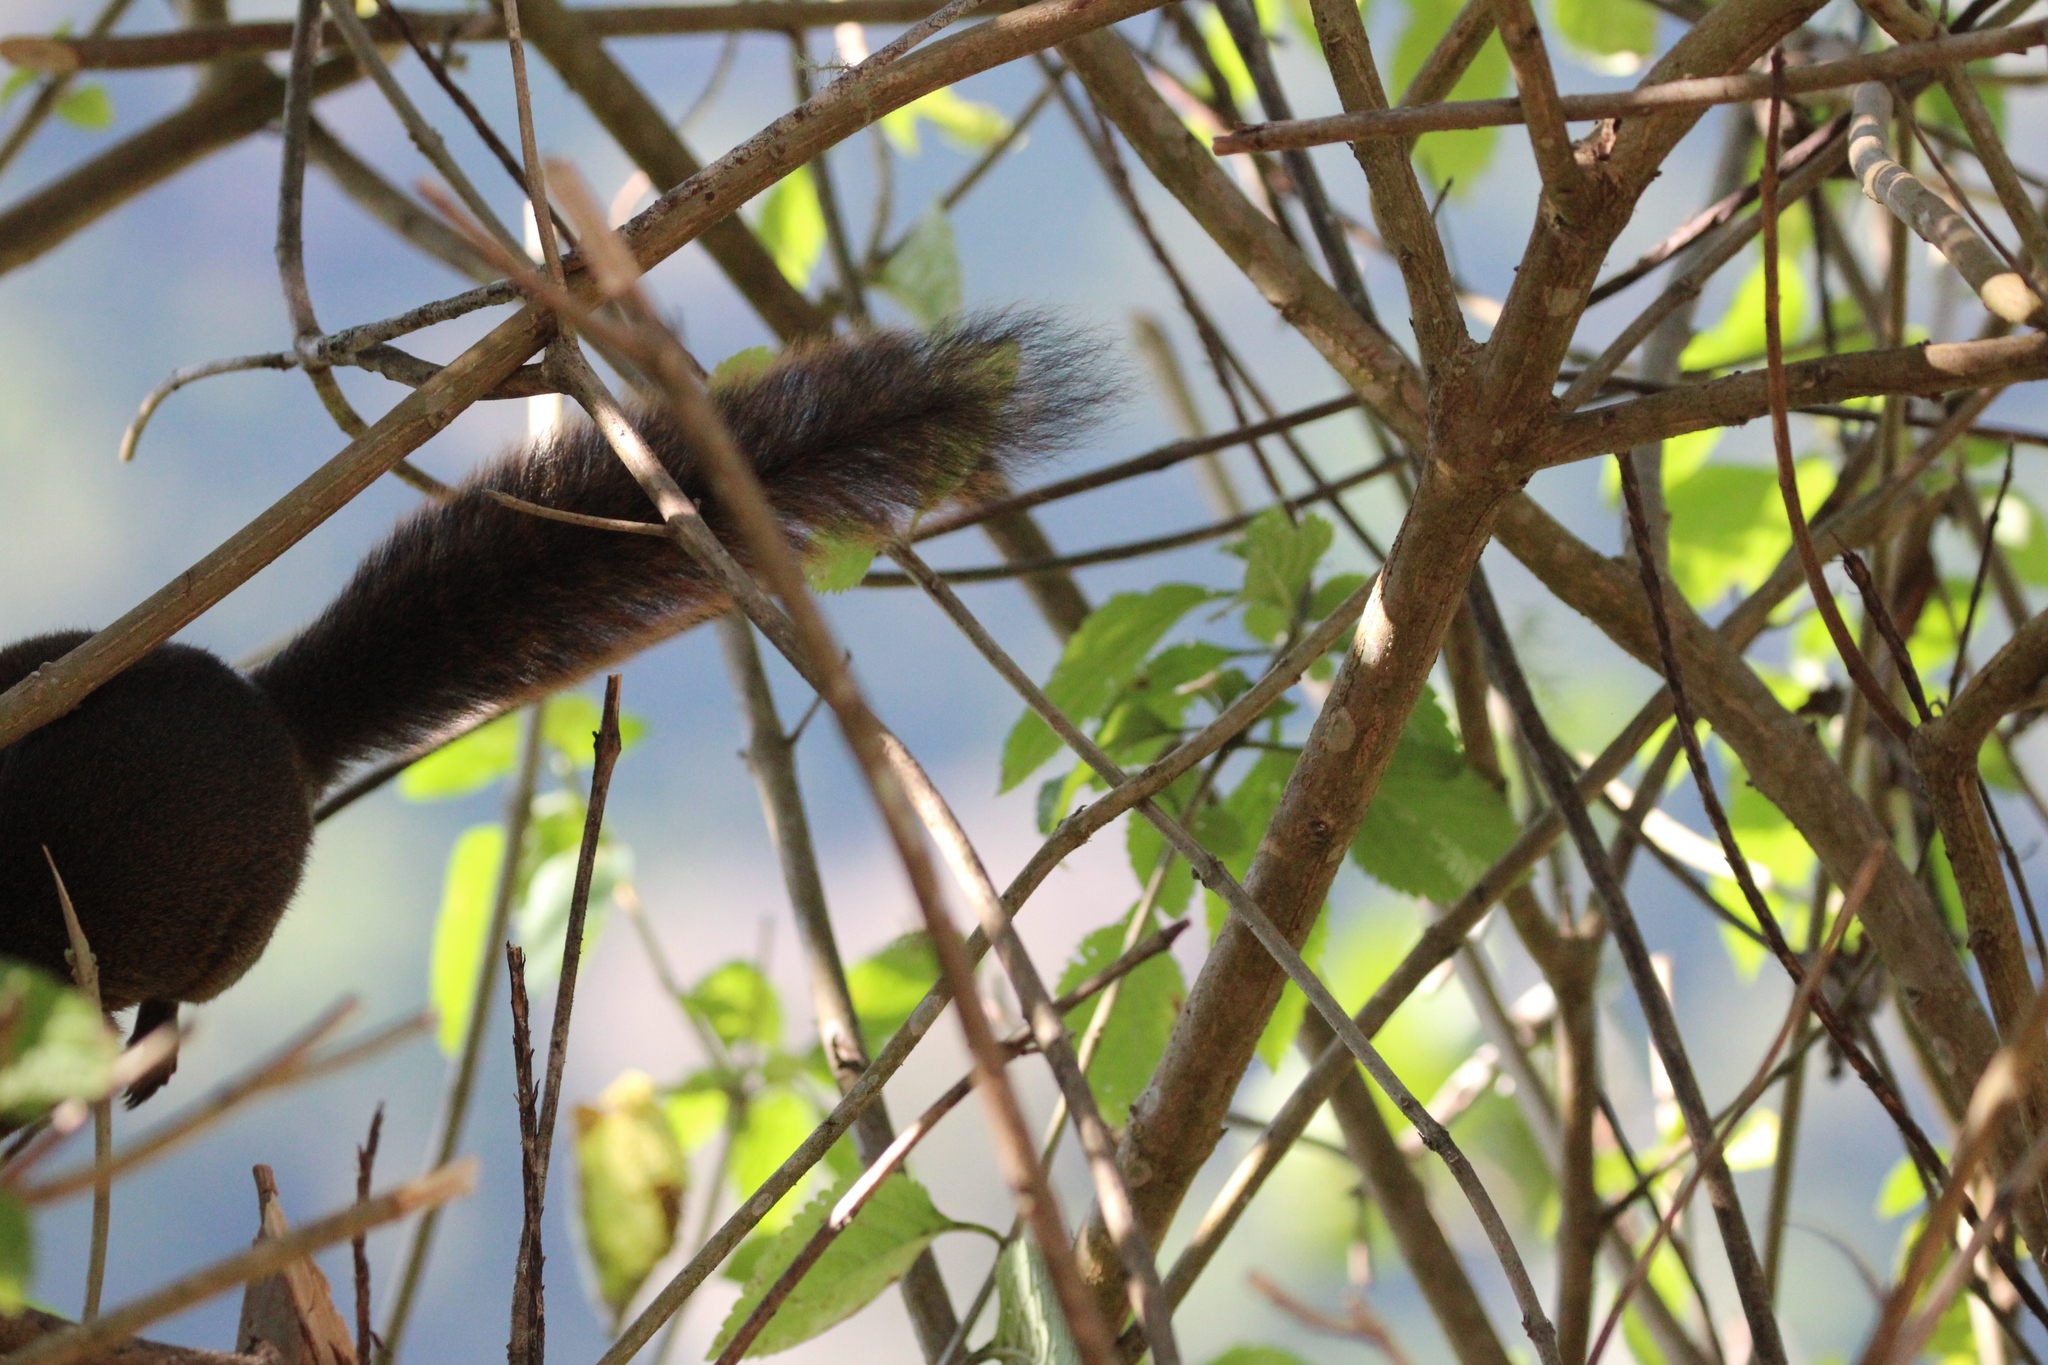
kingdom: Animalia
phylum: Chordata
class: Mammalia
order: Rodentia
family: Sciuridae
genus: Sciurus
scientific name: Sciurus granatensis
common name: Red-tailed squirrel
